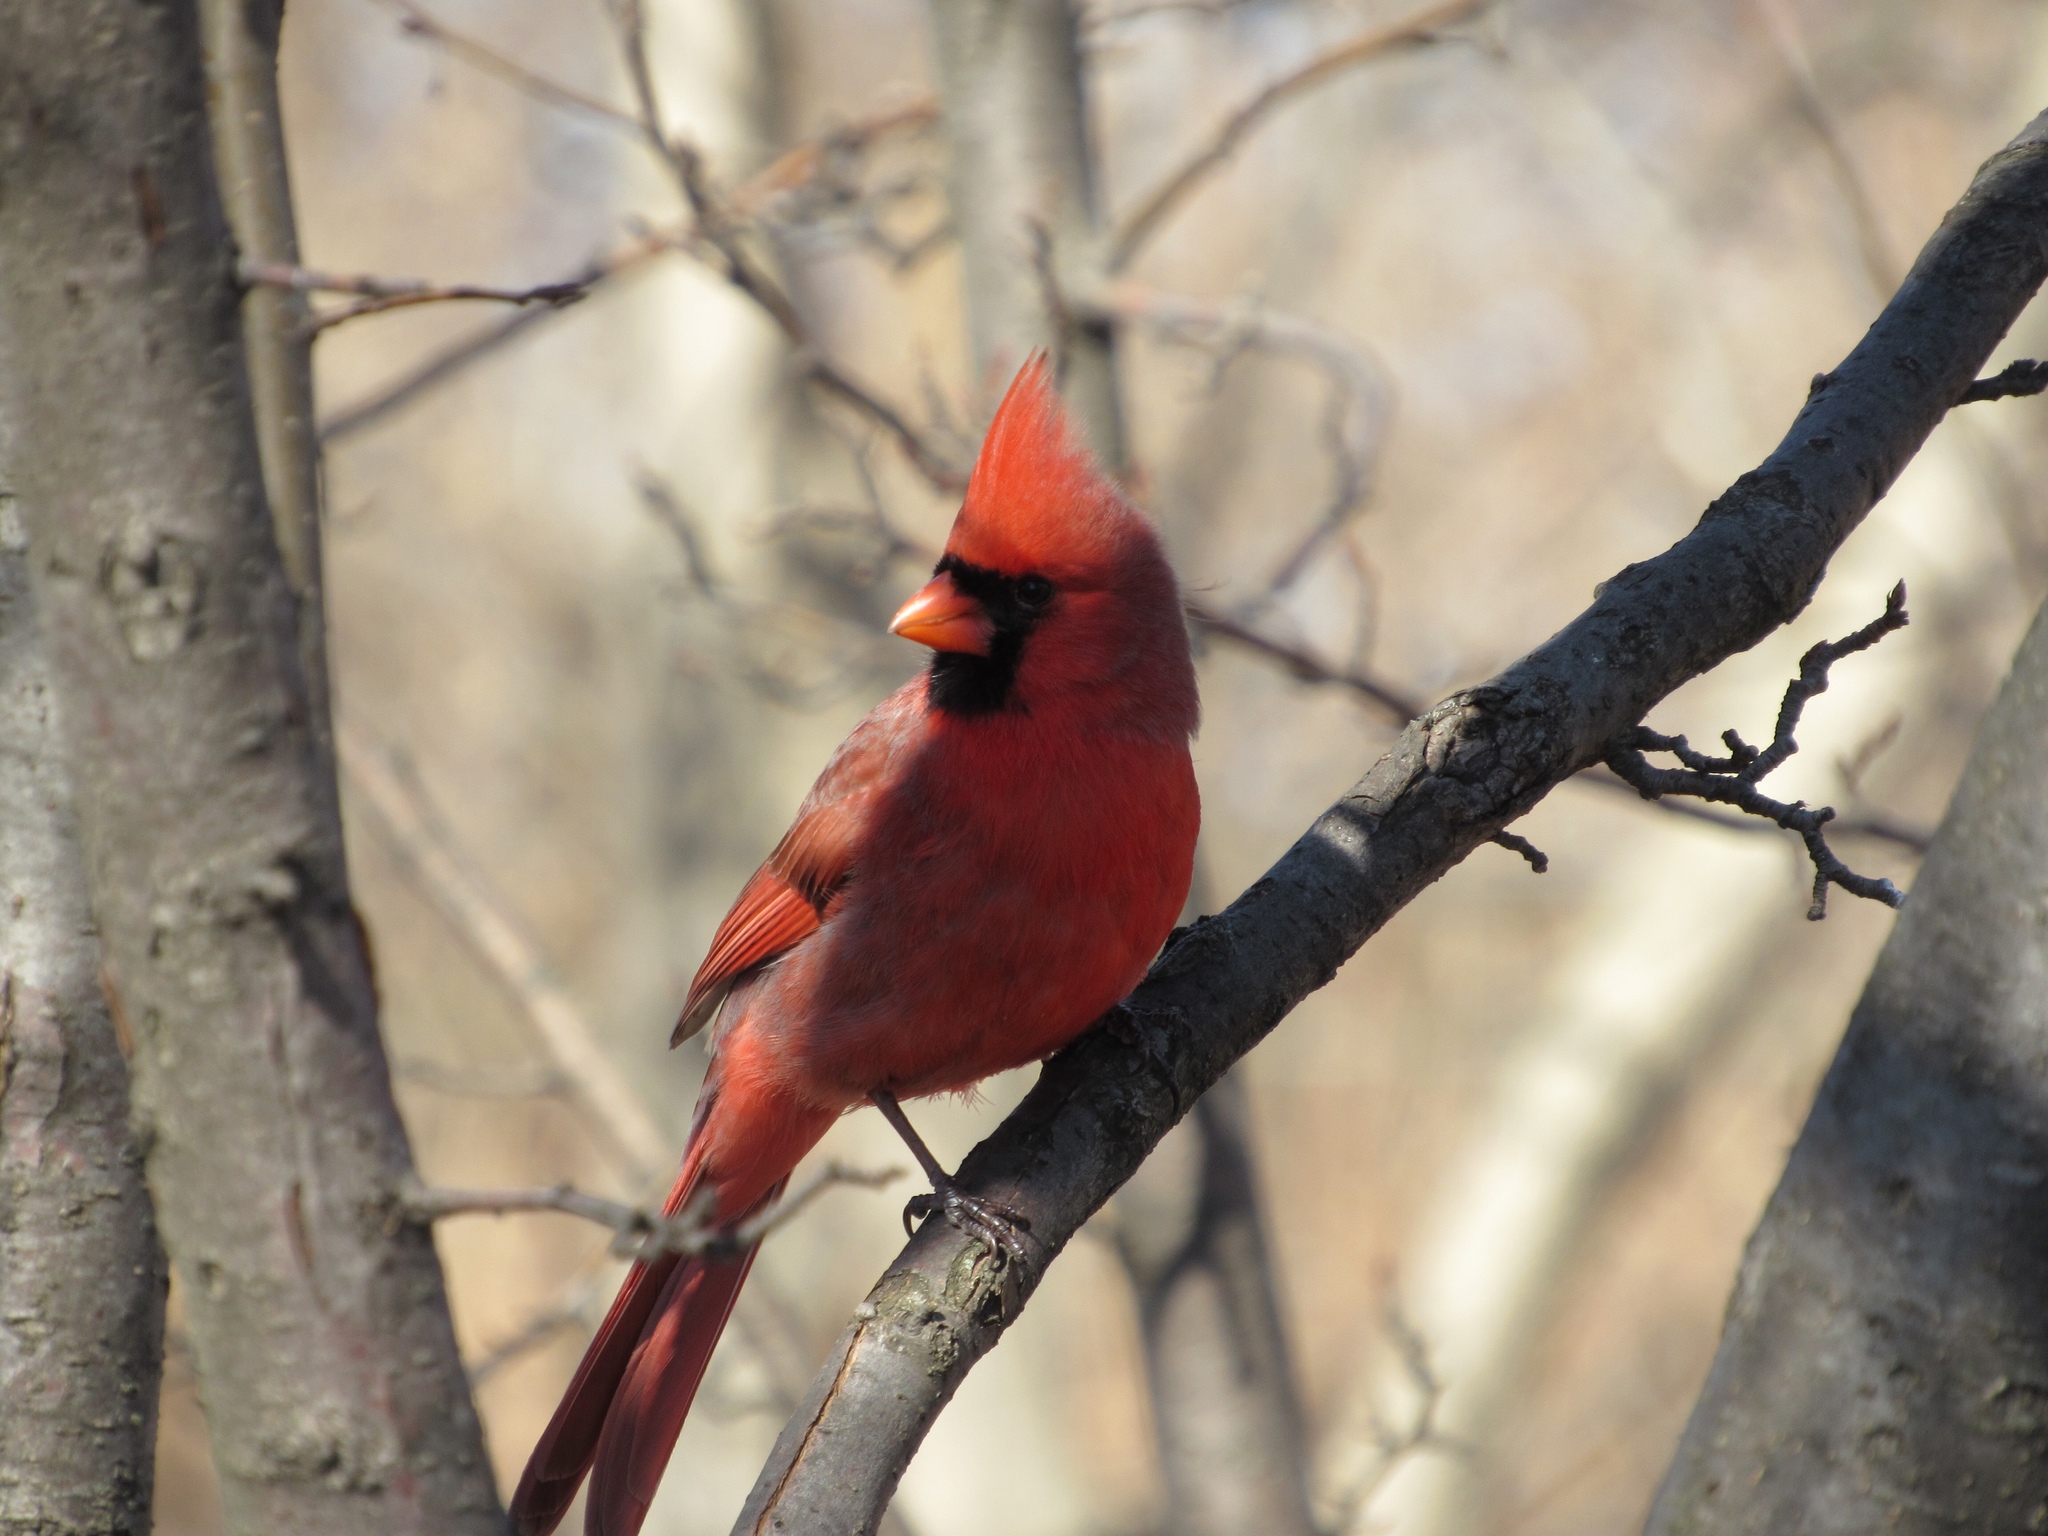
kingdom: Animalia
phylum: Chordata
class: Aves
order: Passeriformes
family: Cardinalidae
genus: Cardinalis
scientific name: Cardinalis cardinalis
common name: Northern cardinal
